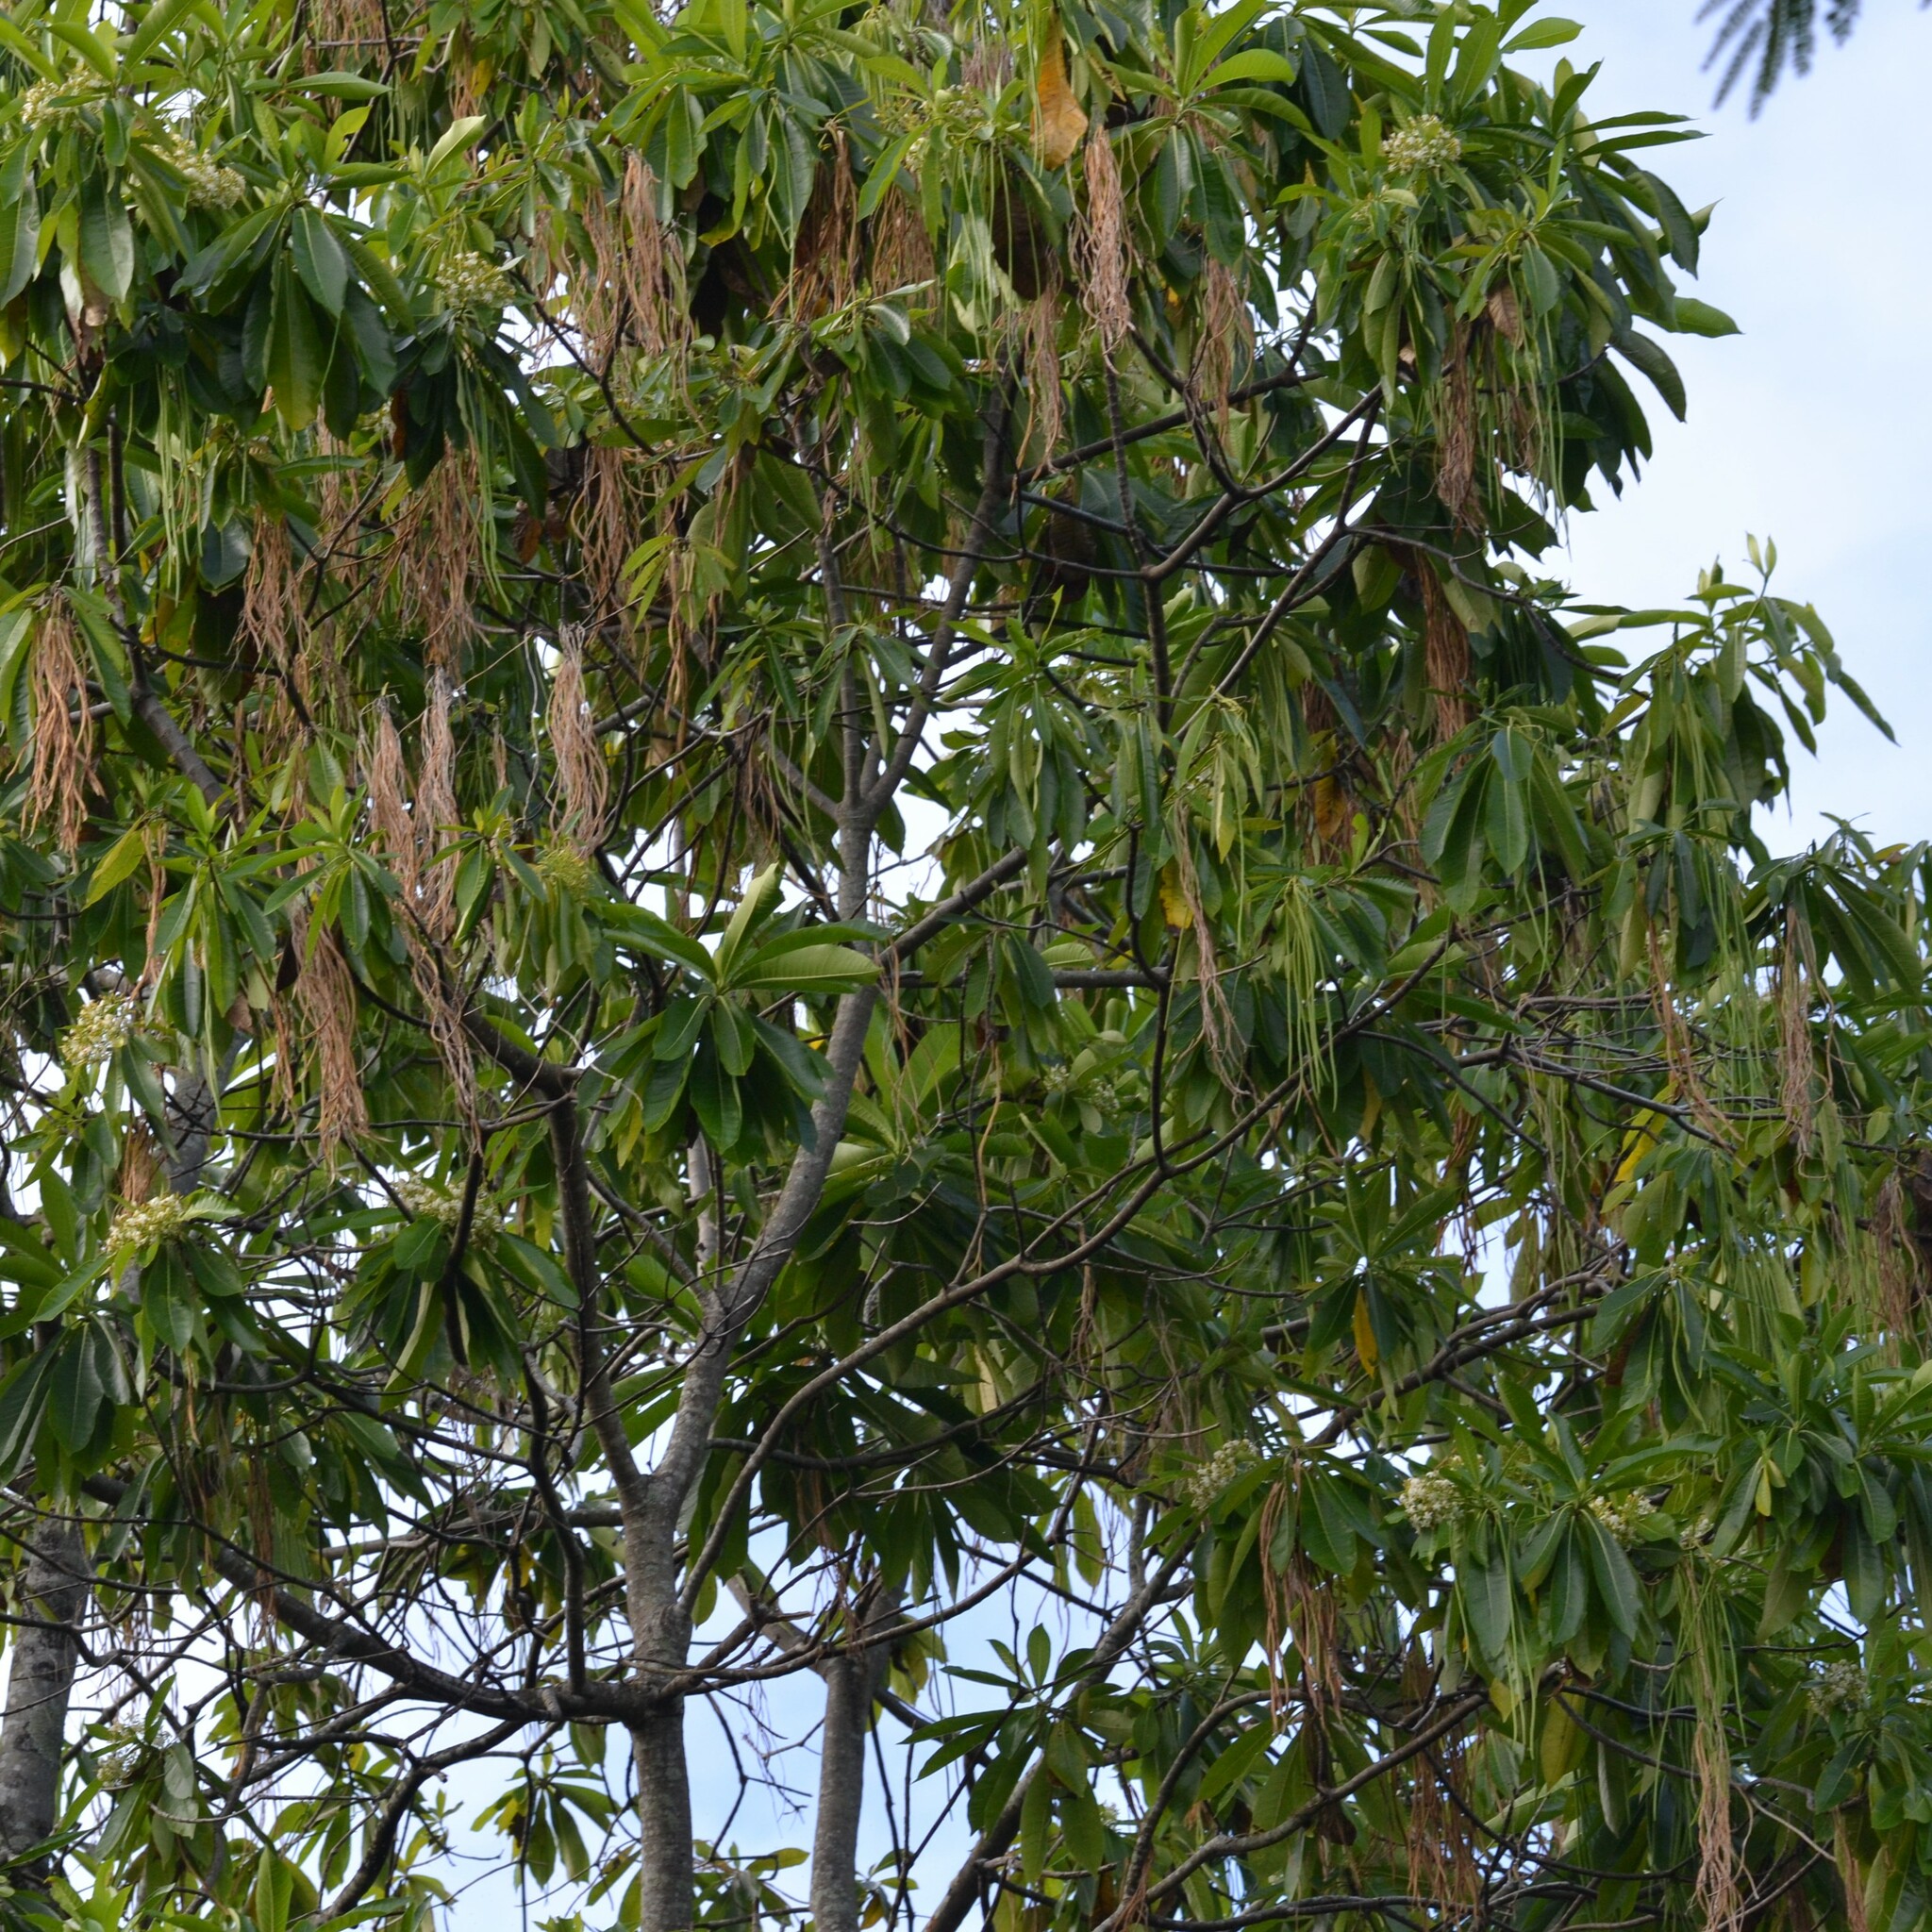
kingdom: Plantae
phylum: Tracheophyta
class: Magnoliopsida
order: Gentianales
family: Apocynaceae
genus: Alstonia
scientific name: Alstonia macrophylla
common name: Deviltree
